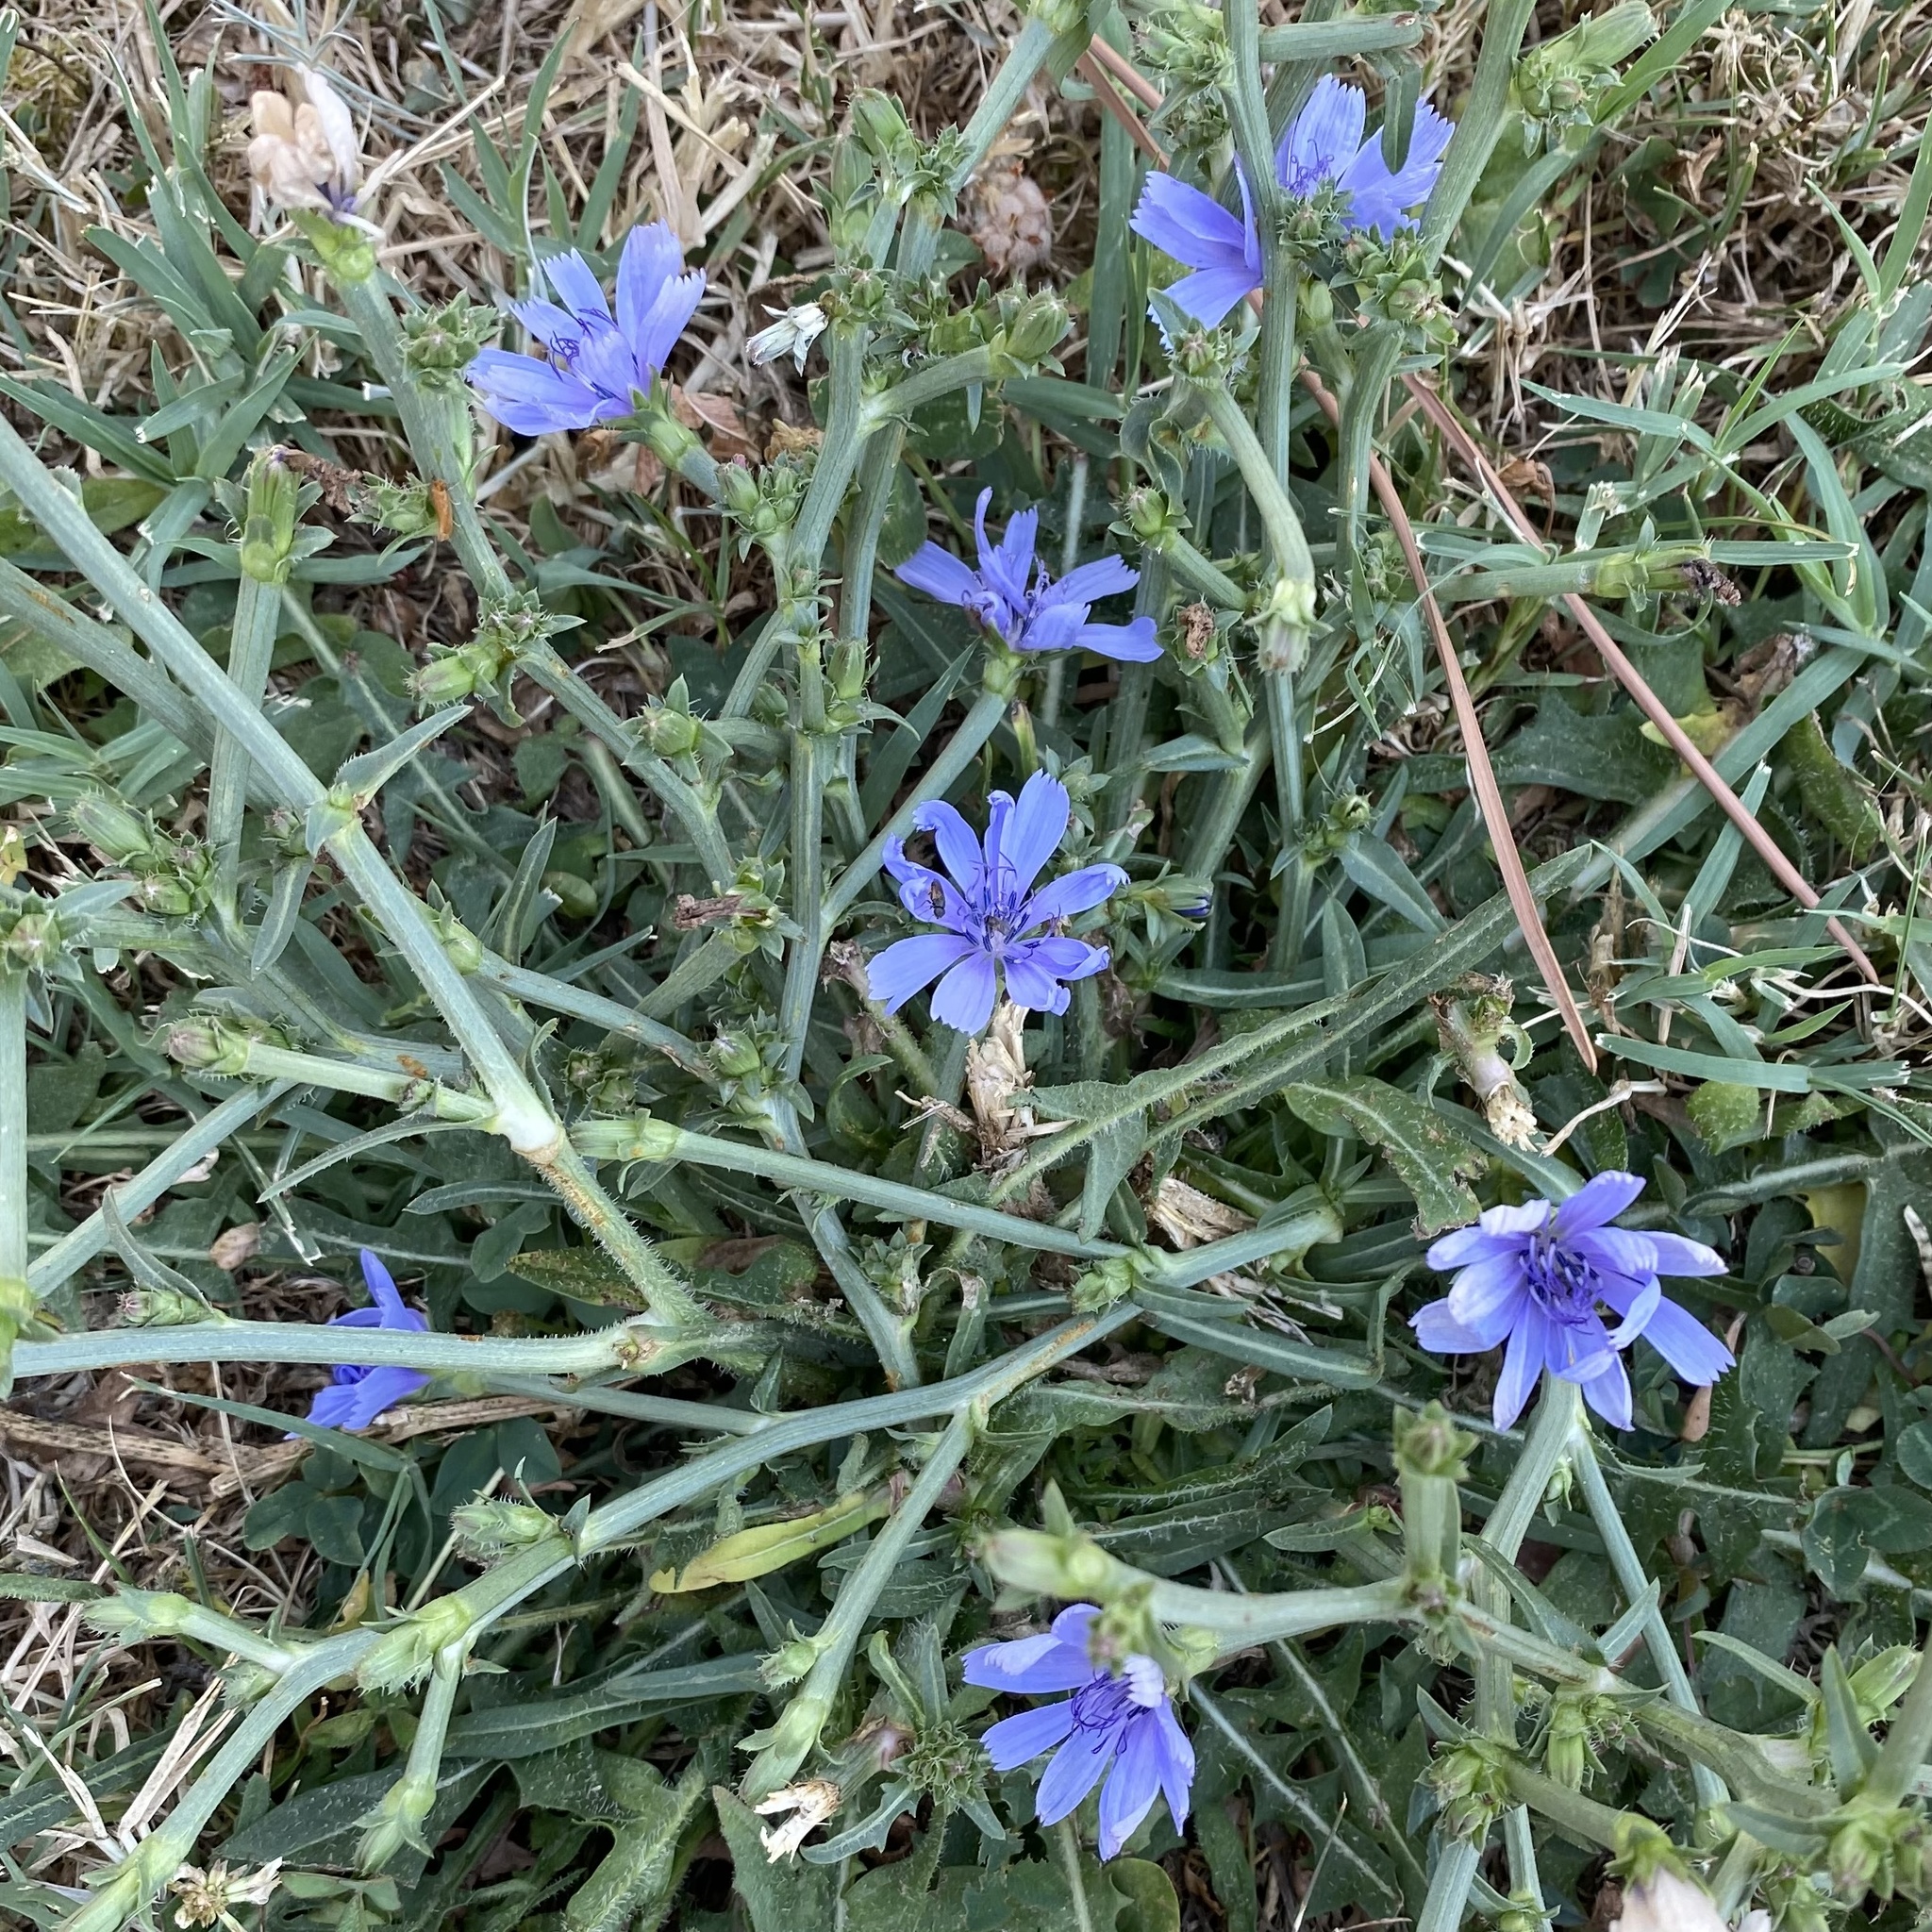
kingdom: Plantae
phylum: Tracheophyta
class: Magnoliopsida
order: Asterales
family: Asteraceae
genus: Cichorium
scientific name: Cichorium intybus
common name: Chicory
